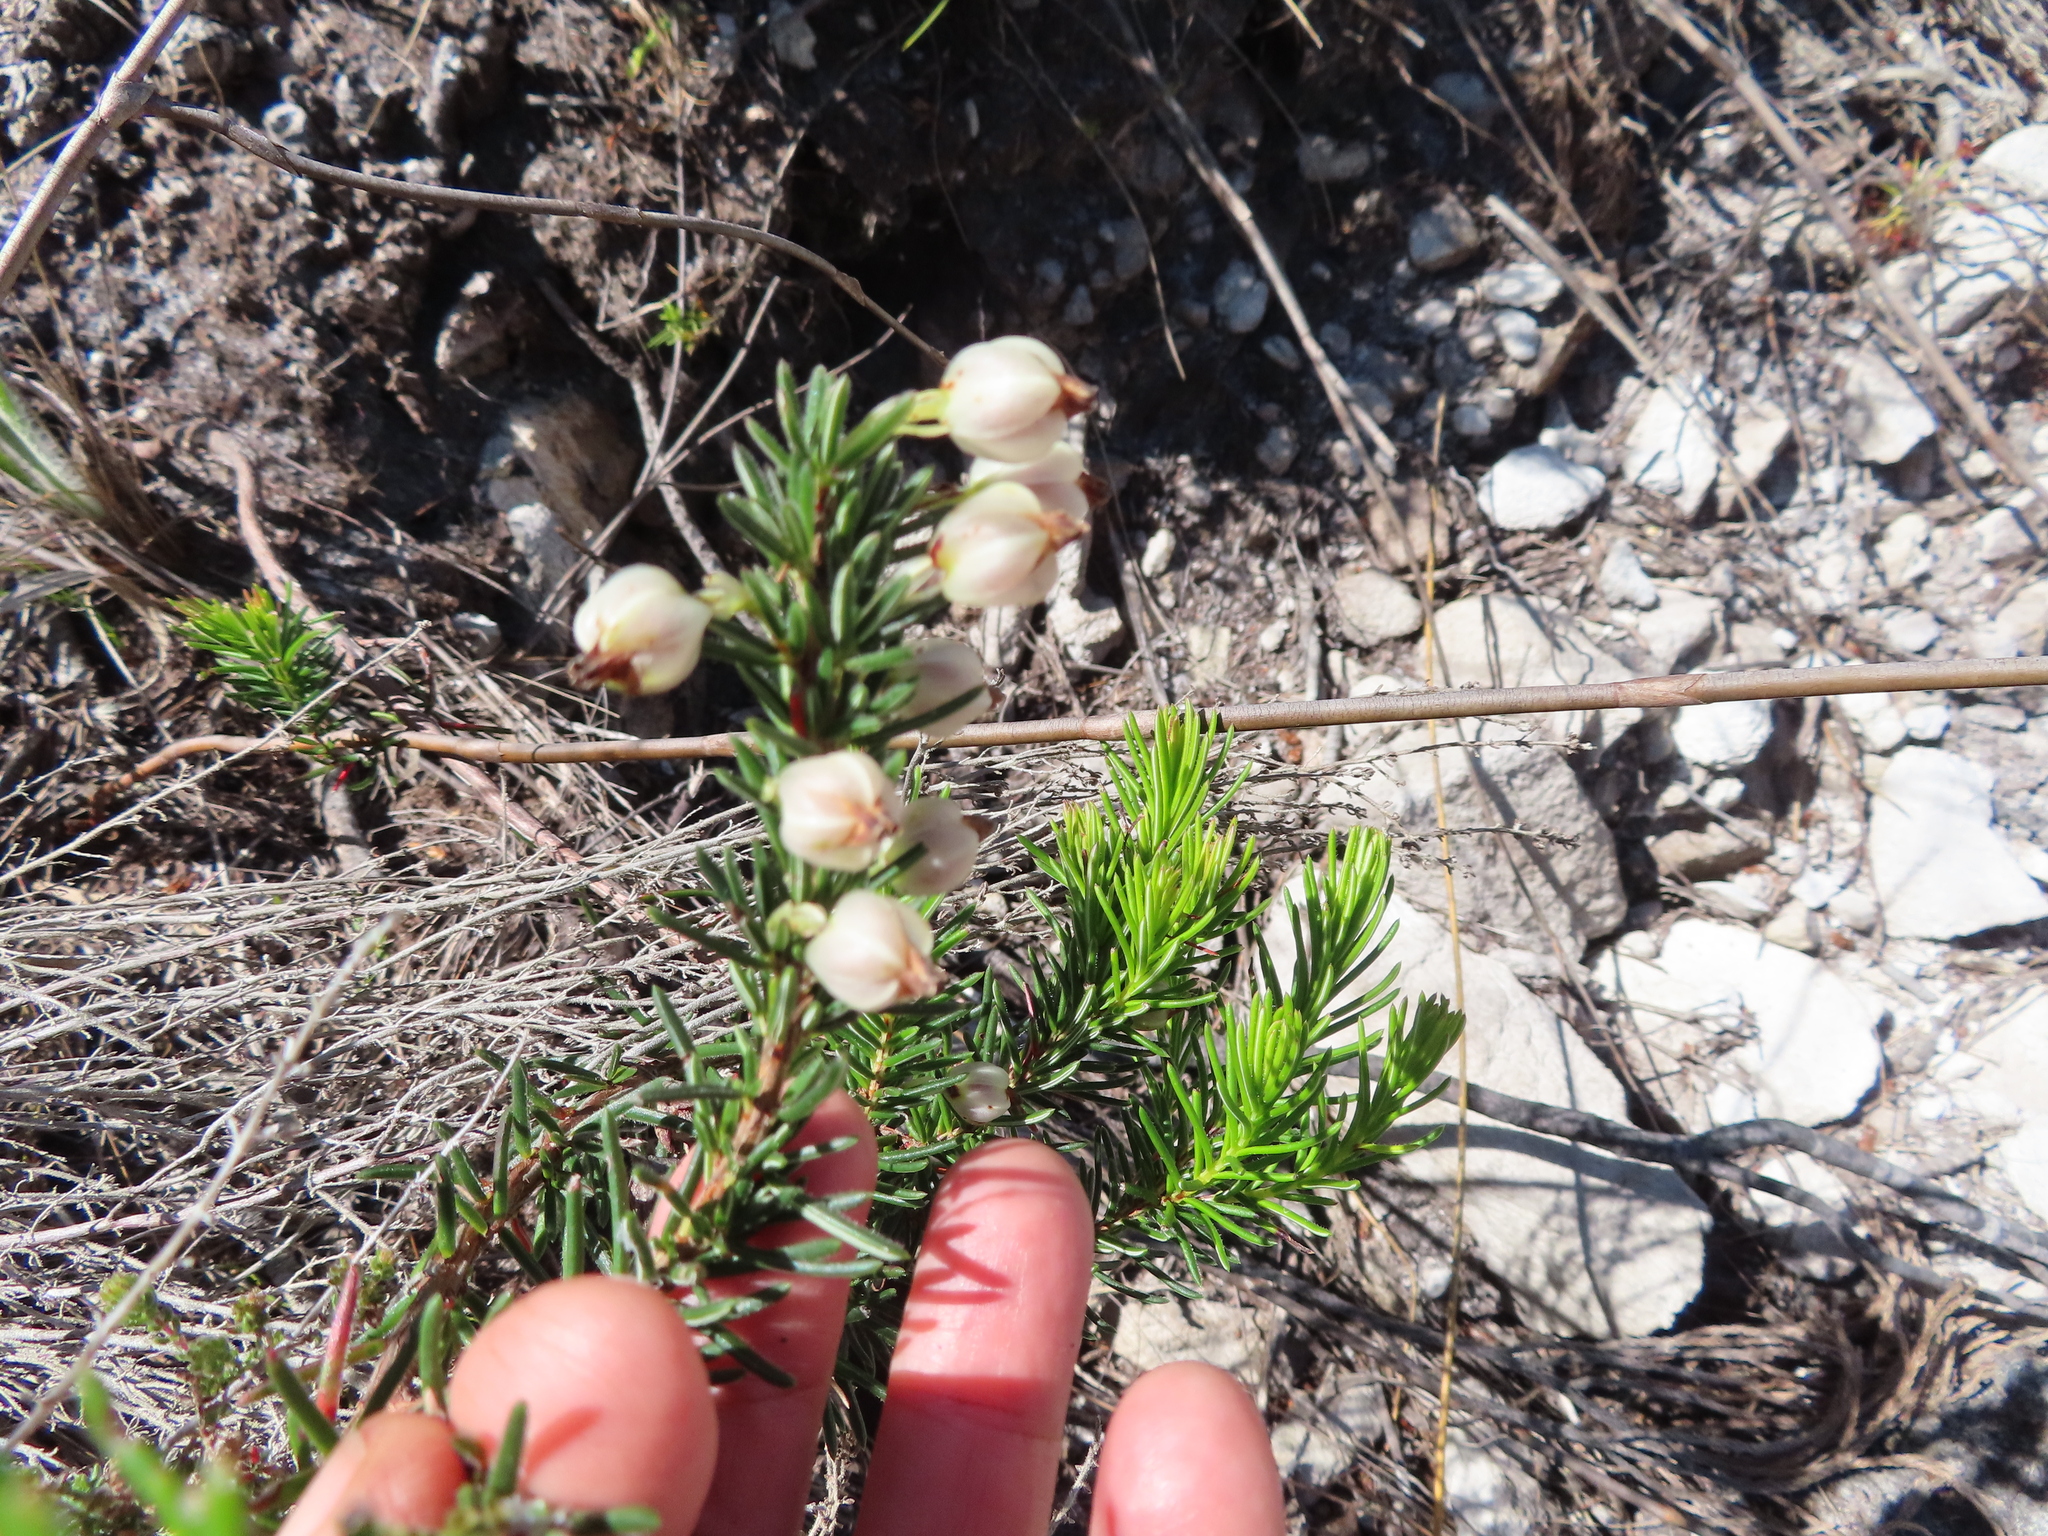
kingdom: Plantae
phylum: Tracheophyta
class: Magnoliopsida
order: Ericales
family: Ericaceae
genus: Erica
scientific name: Erica grisbrookii
